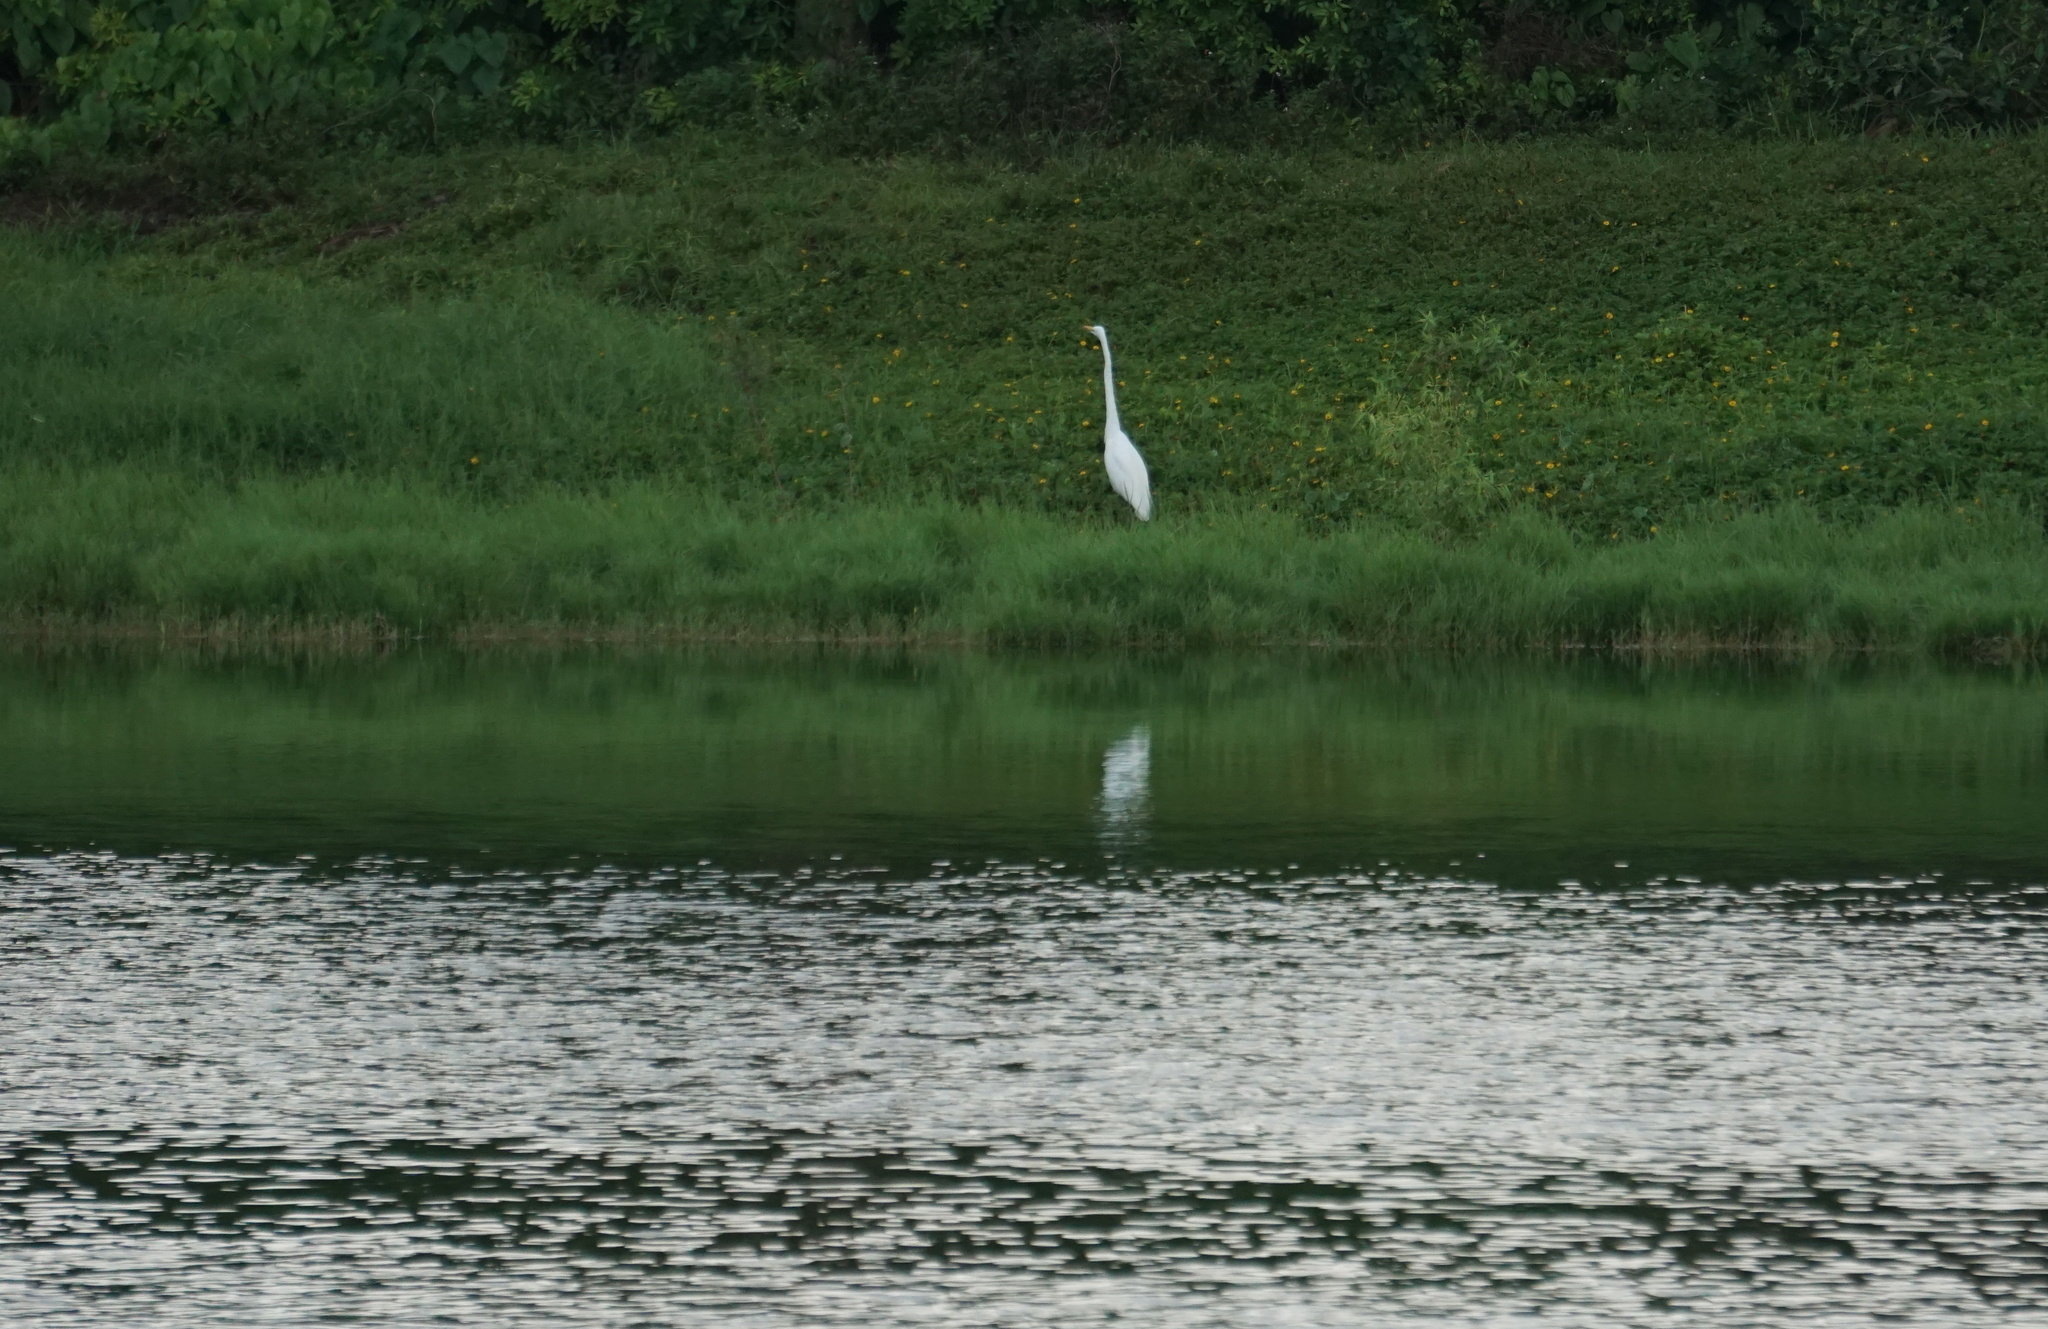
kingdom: Animalia
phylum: Chordata
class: Aves
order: Pelecaniformes
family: Ardeidae
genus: Ardea
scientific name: Ardea alba
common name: Great egret
